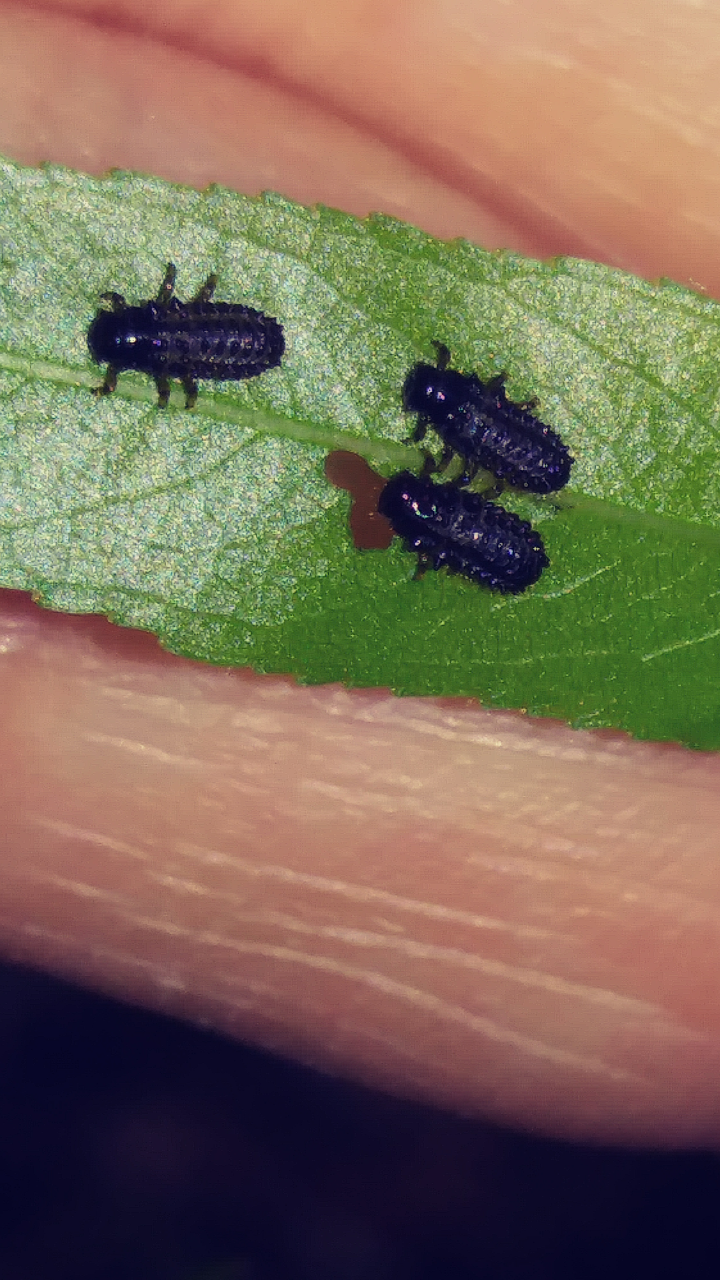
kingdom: Animalia
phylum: Arthropoda
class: Insecta
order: Coleoptera
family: Chrysomelidae
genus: Plagiodera
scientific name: Plagiodera versicolora
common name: Imported willow leaf beetle
